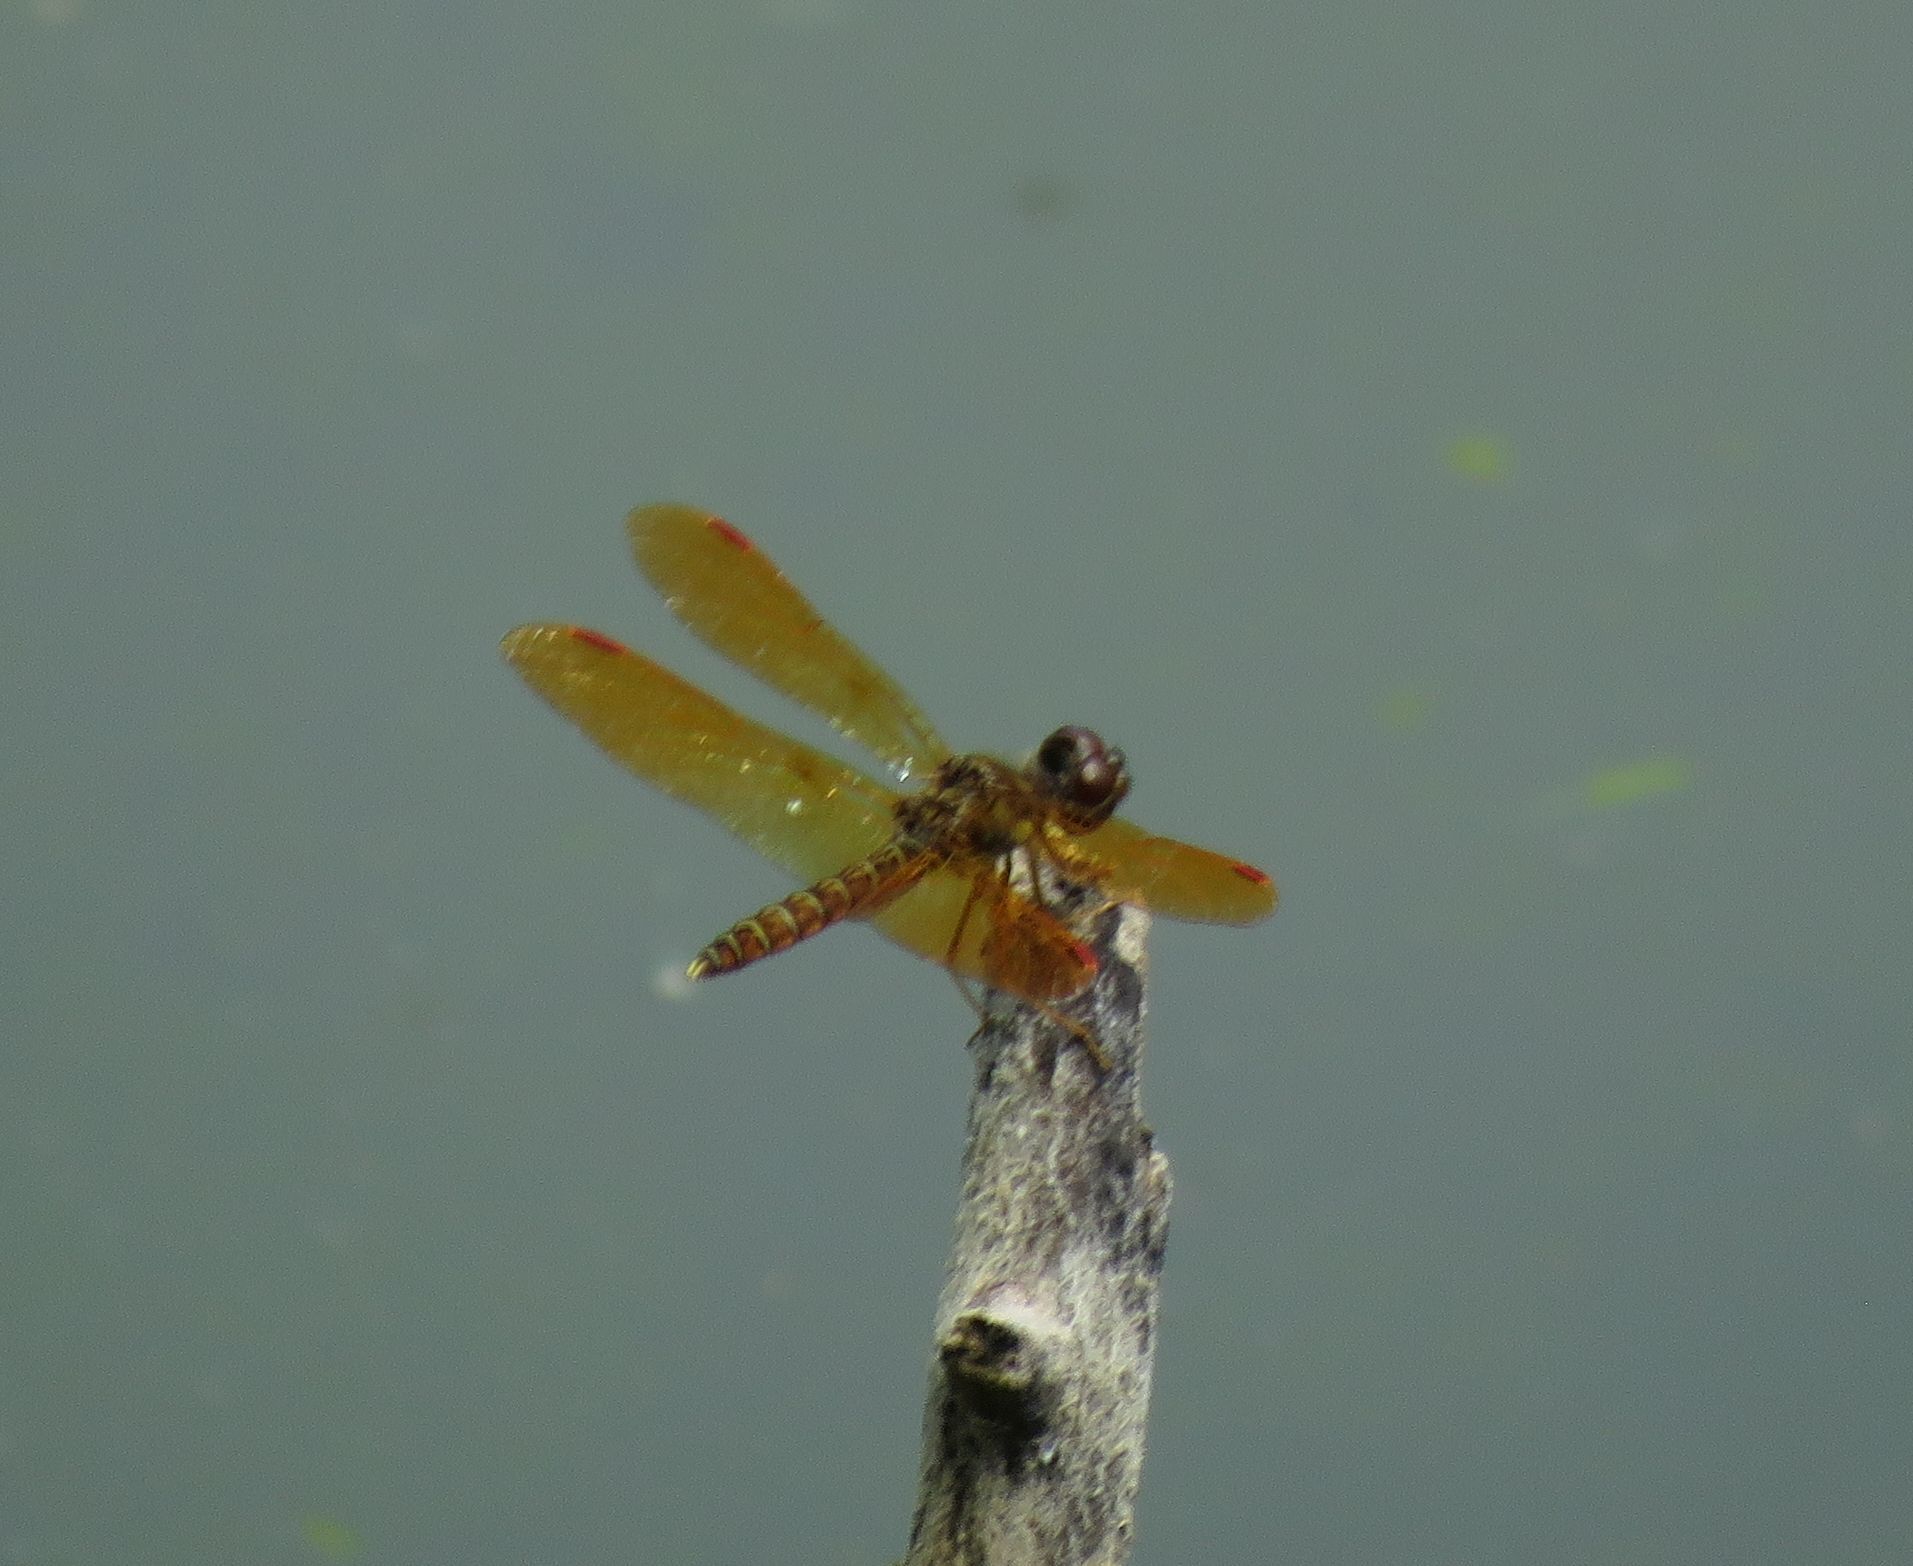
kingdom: Animalia
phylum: Arthropoda
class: Insecta
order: Odonata
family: Libellulidae
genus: Perithemis
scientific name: Perithemis tenera
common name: Eastern amberwing
